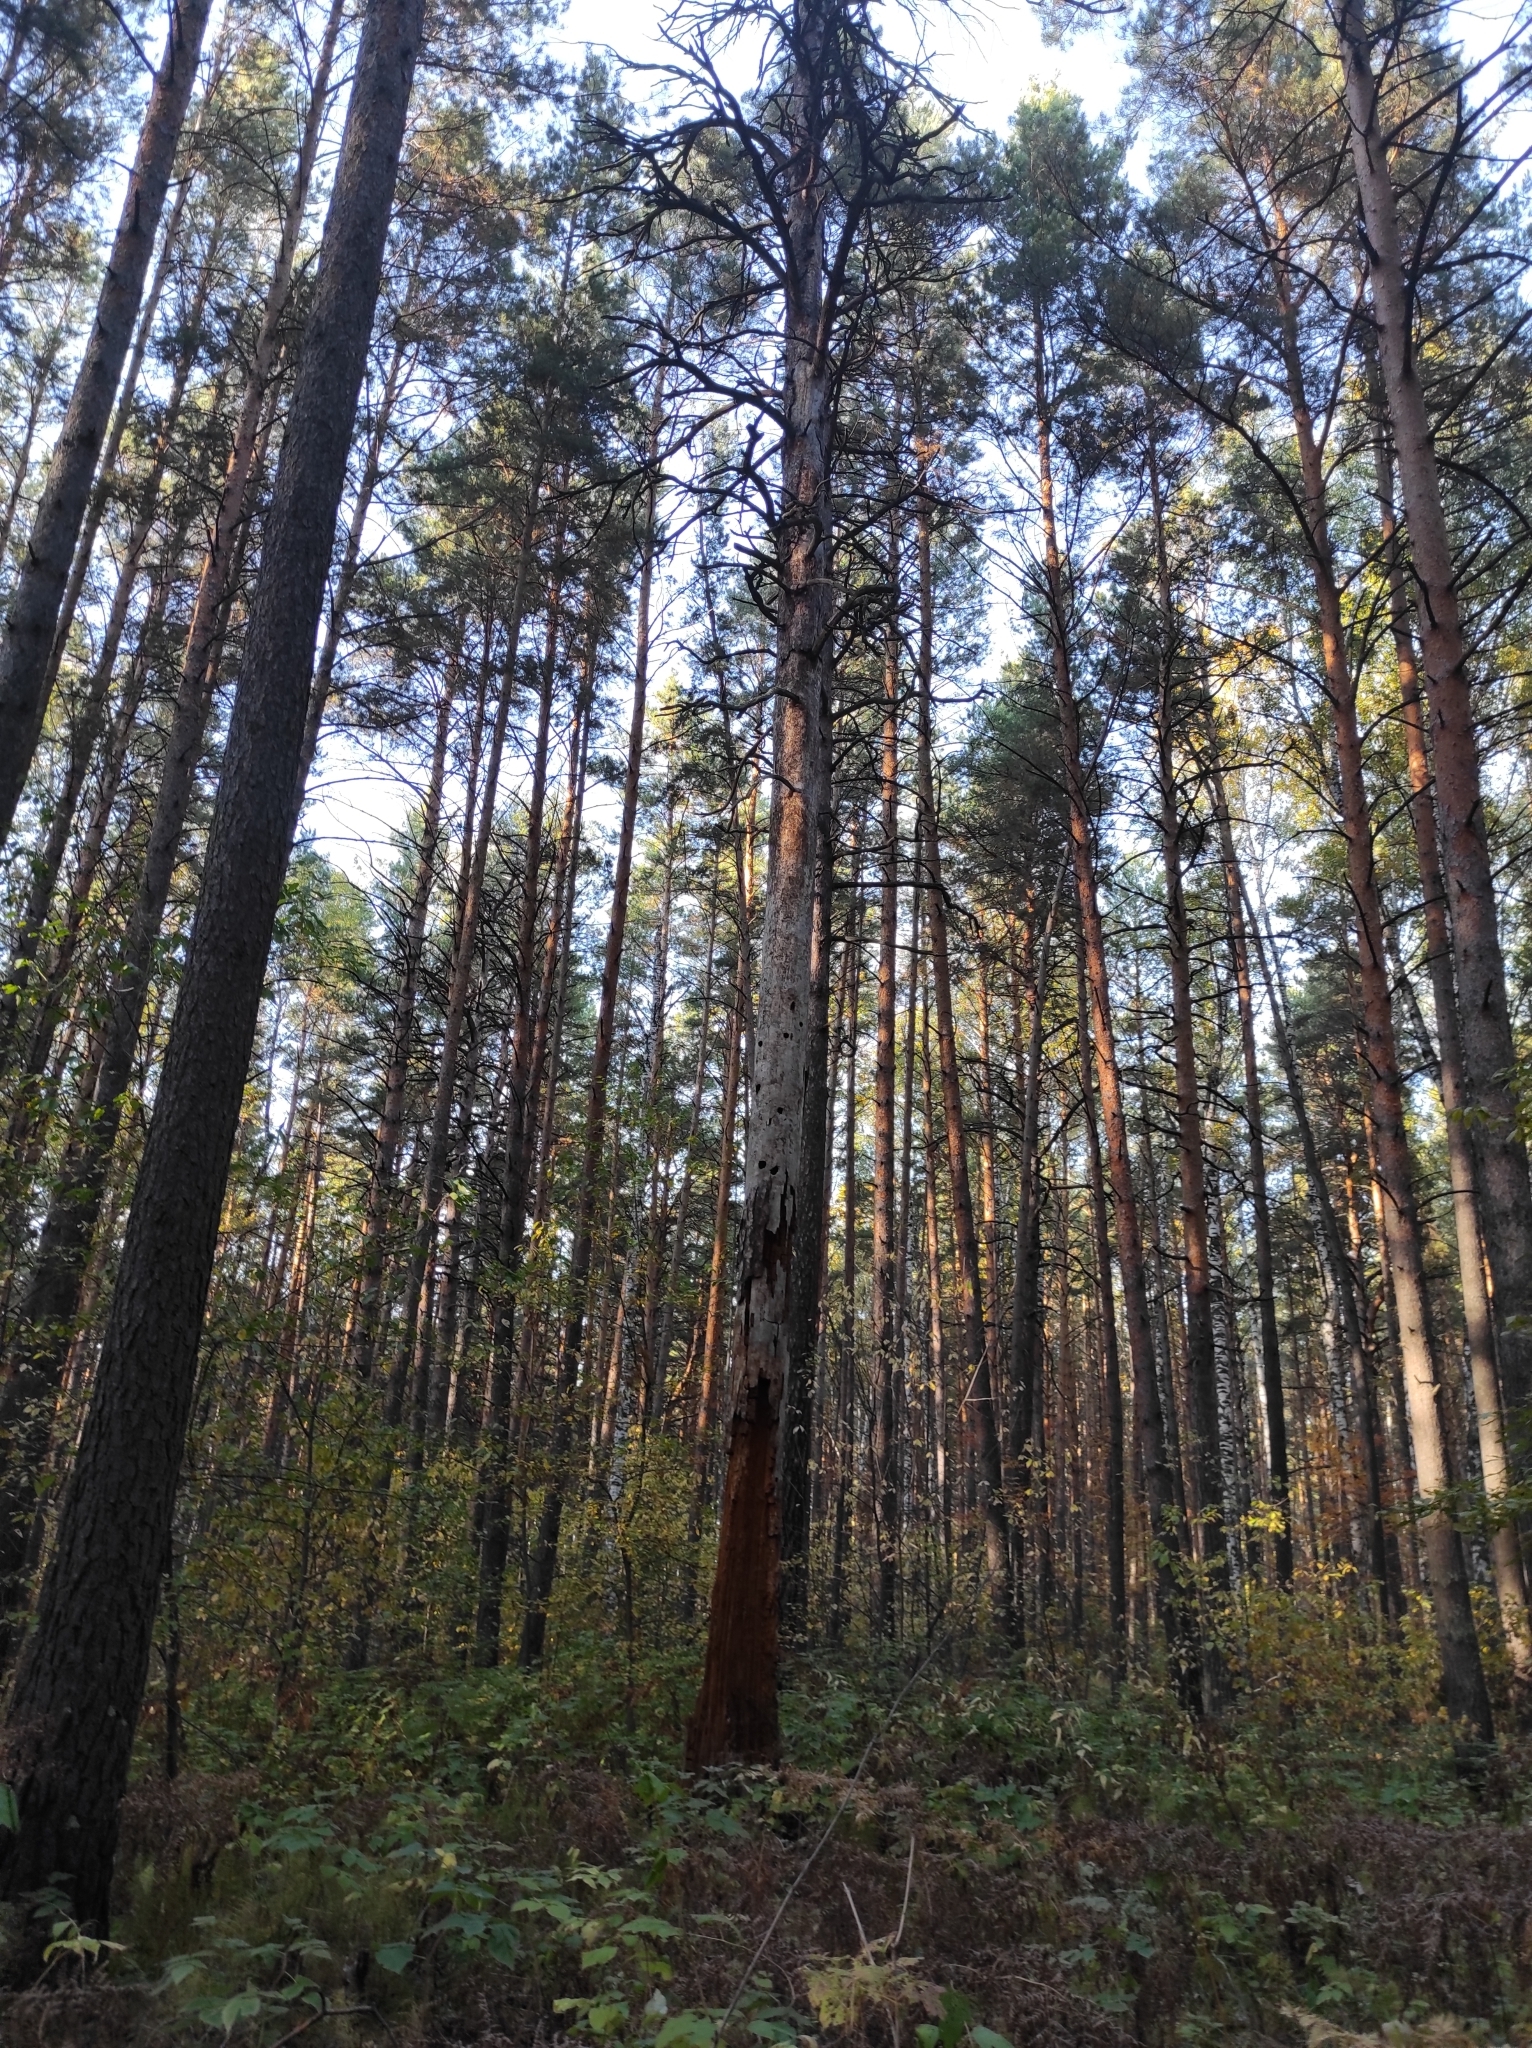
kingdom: Plantae
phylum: Tracheophyta
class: Pinopsida
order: Pinales
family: Pinaceae
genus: Pinus
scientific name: Pinus sylvestris
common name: Scots pine
